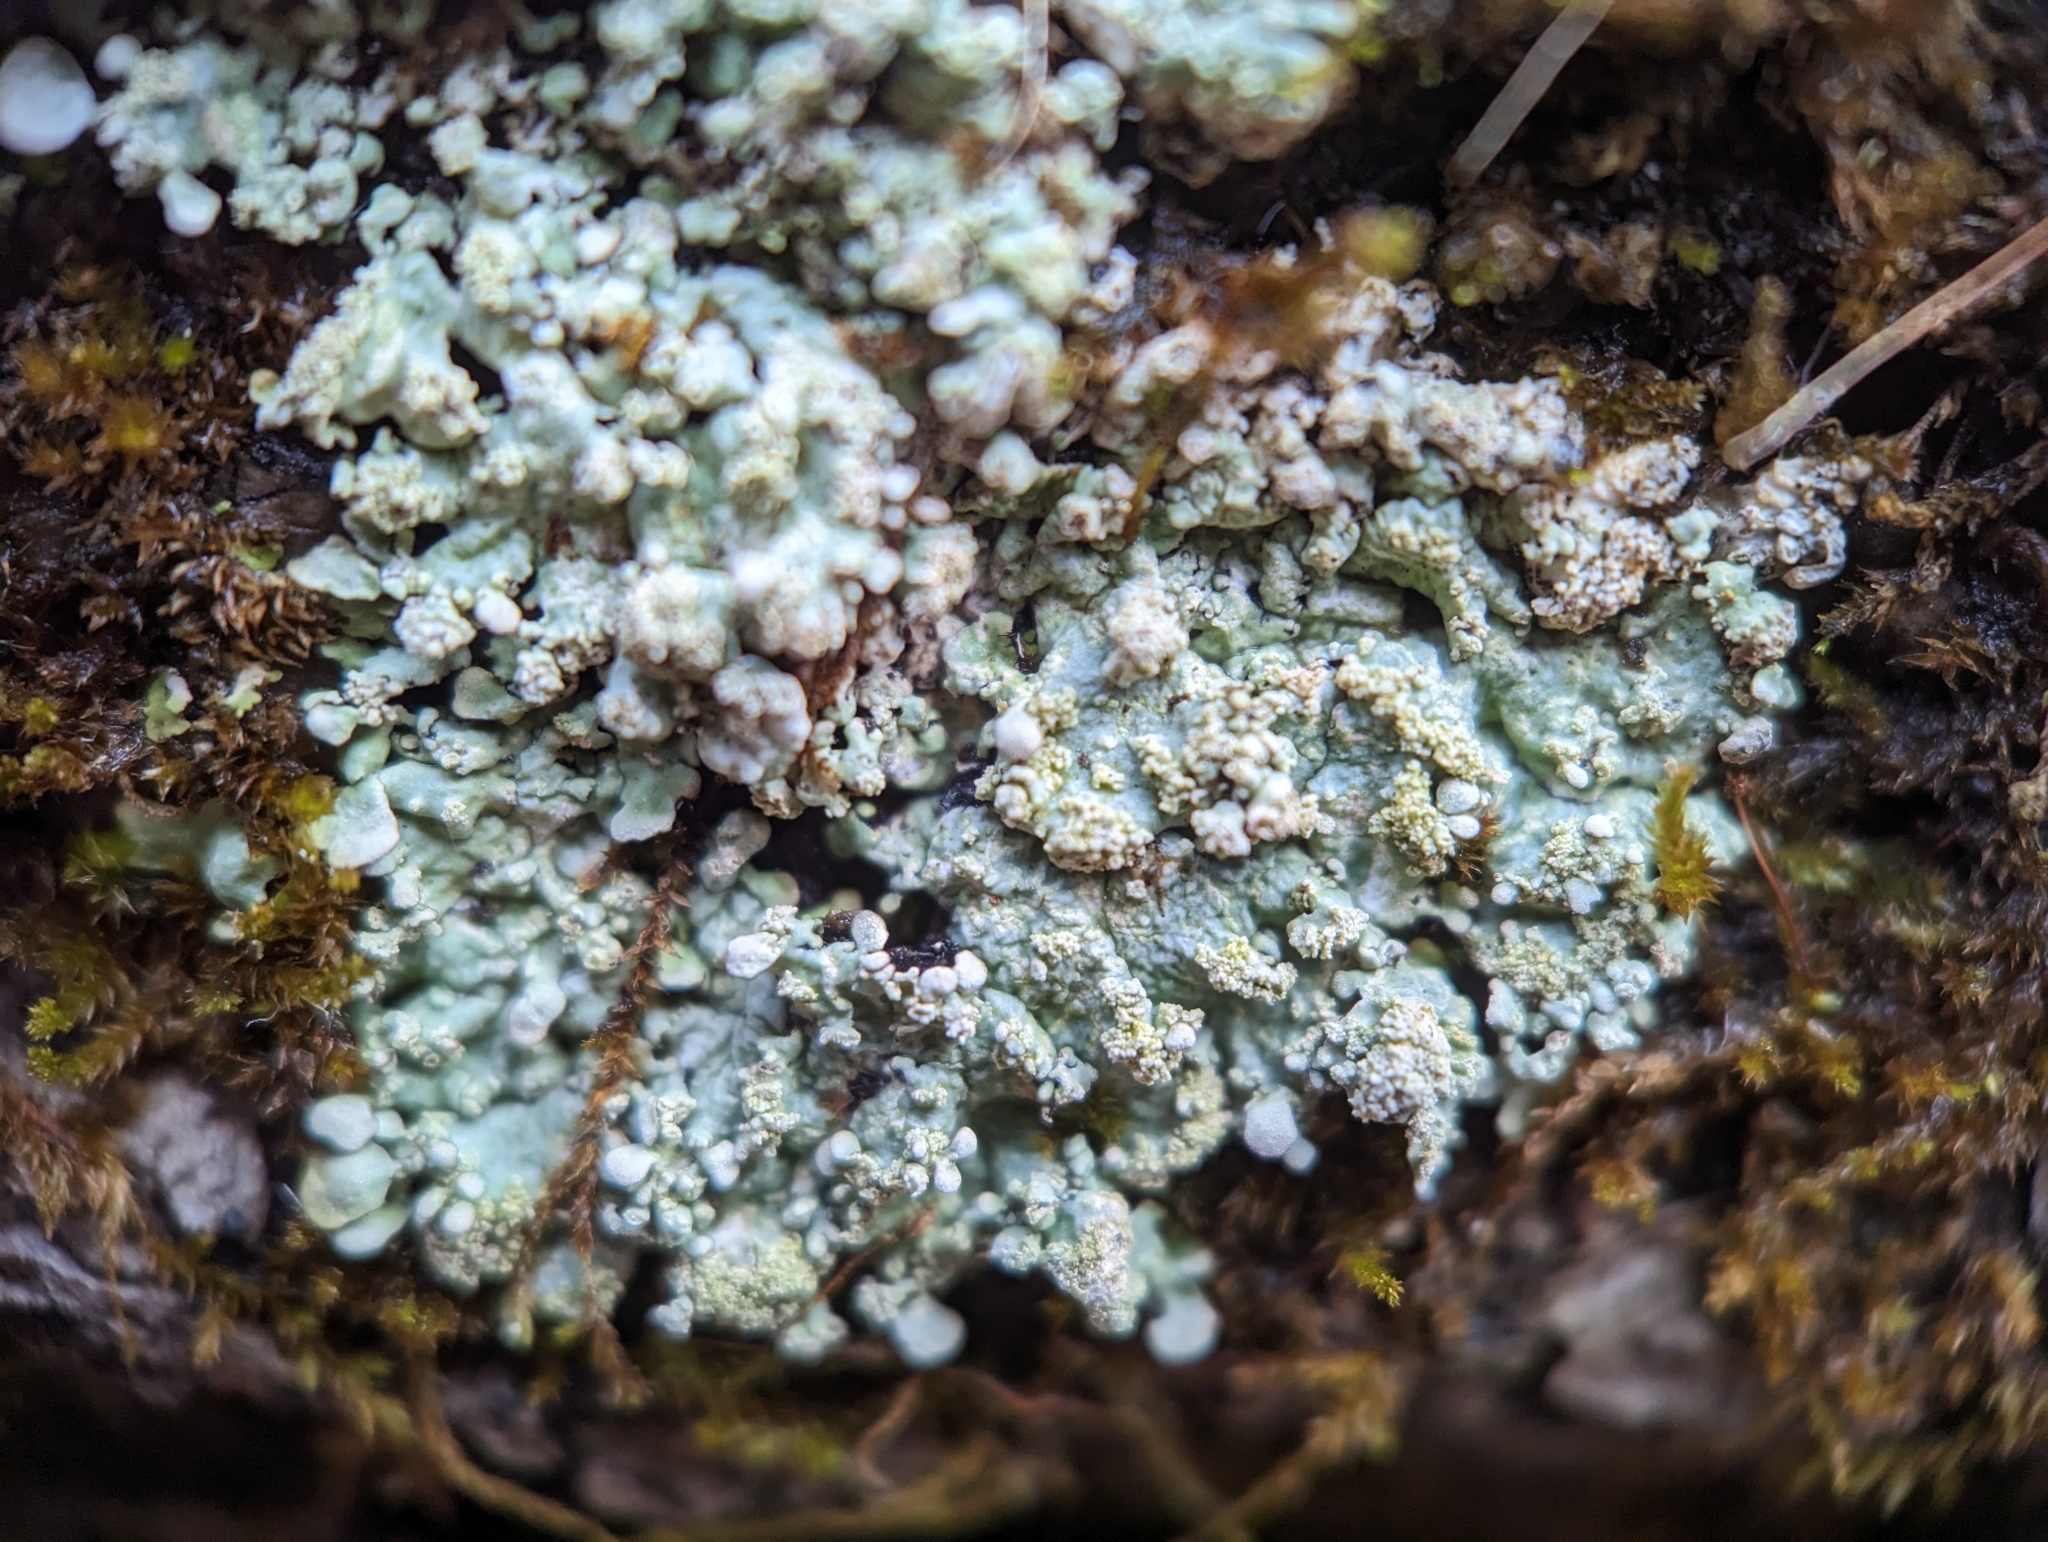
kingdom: Fungi
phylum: Ascomycota
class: Lecanoromycetes
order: Lecanorales
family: Parmeliaceae
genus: Myelochroa
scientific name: Myelochroa aurulenta
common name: Powdery axil-bristle lichen
